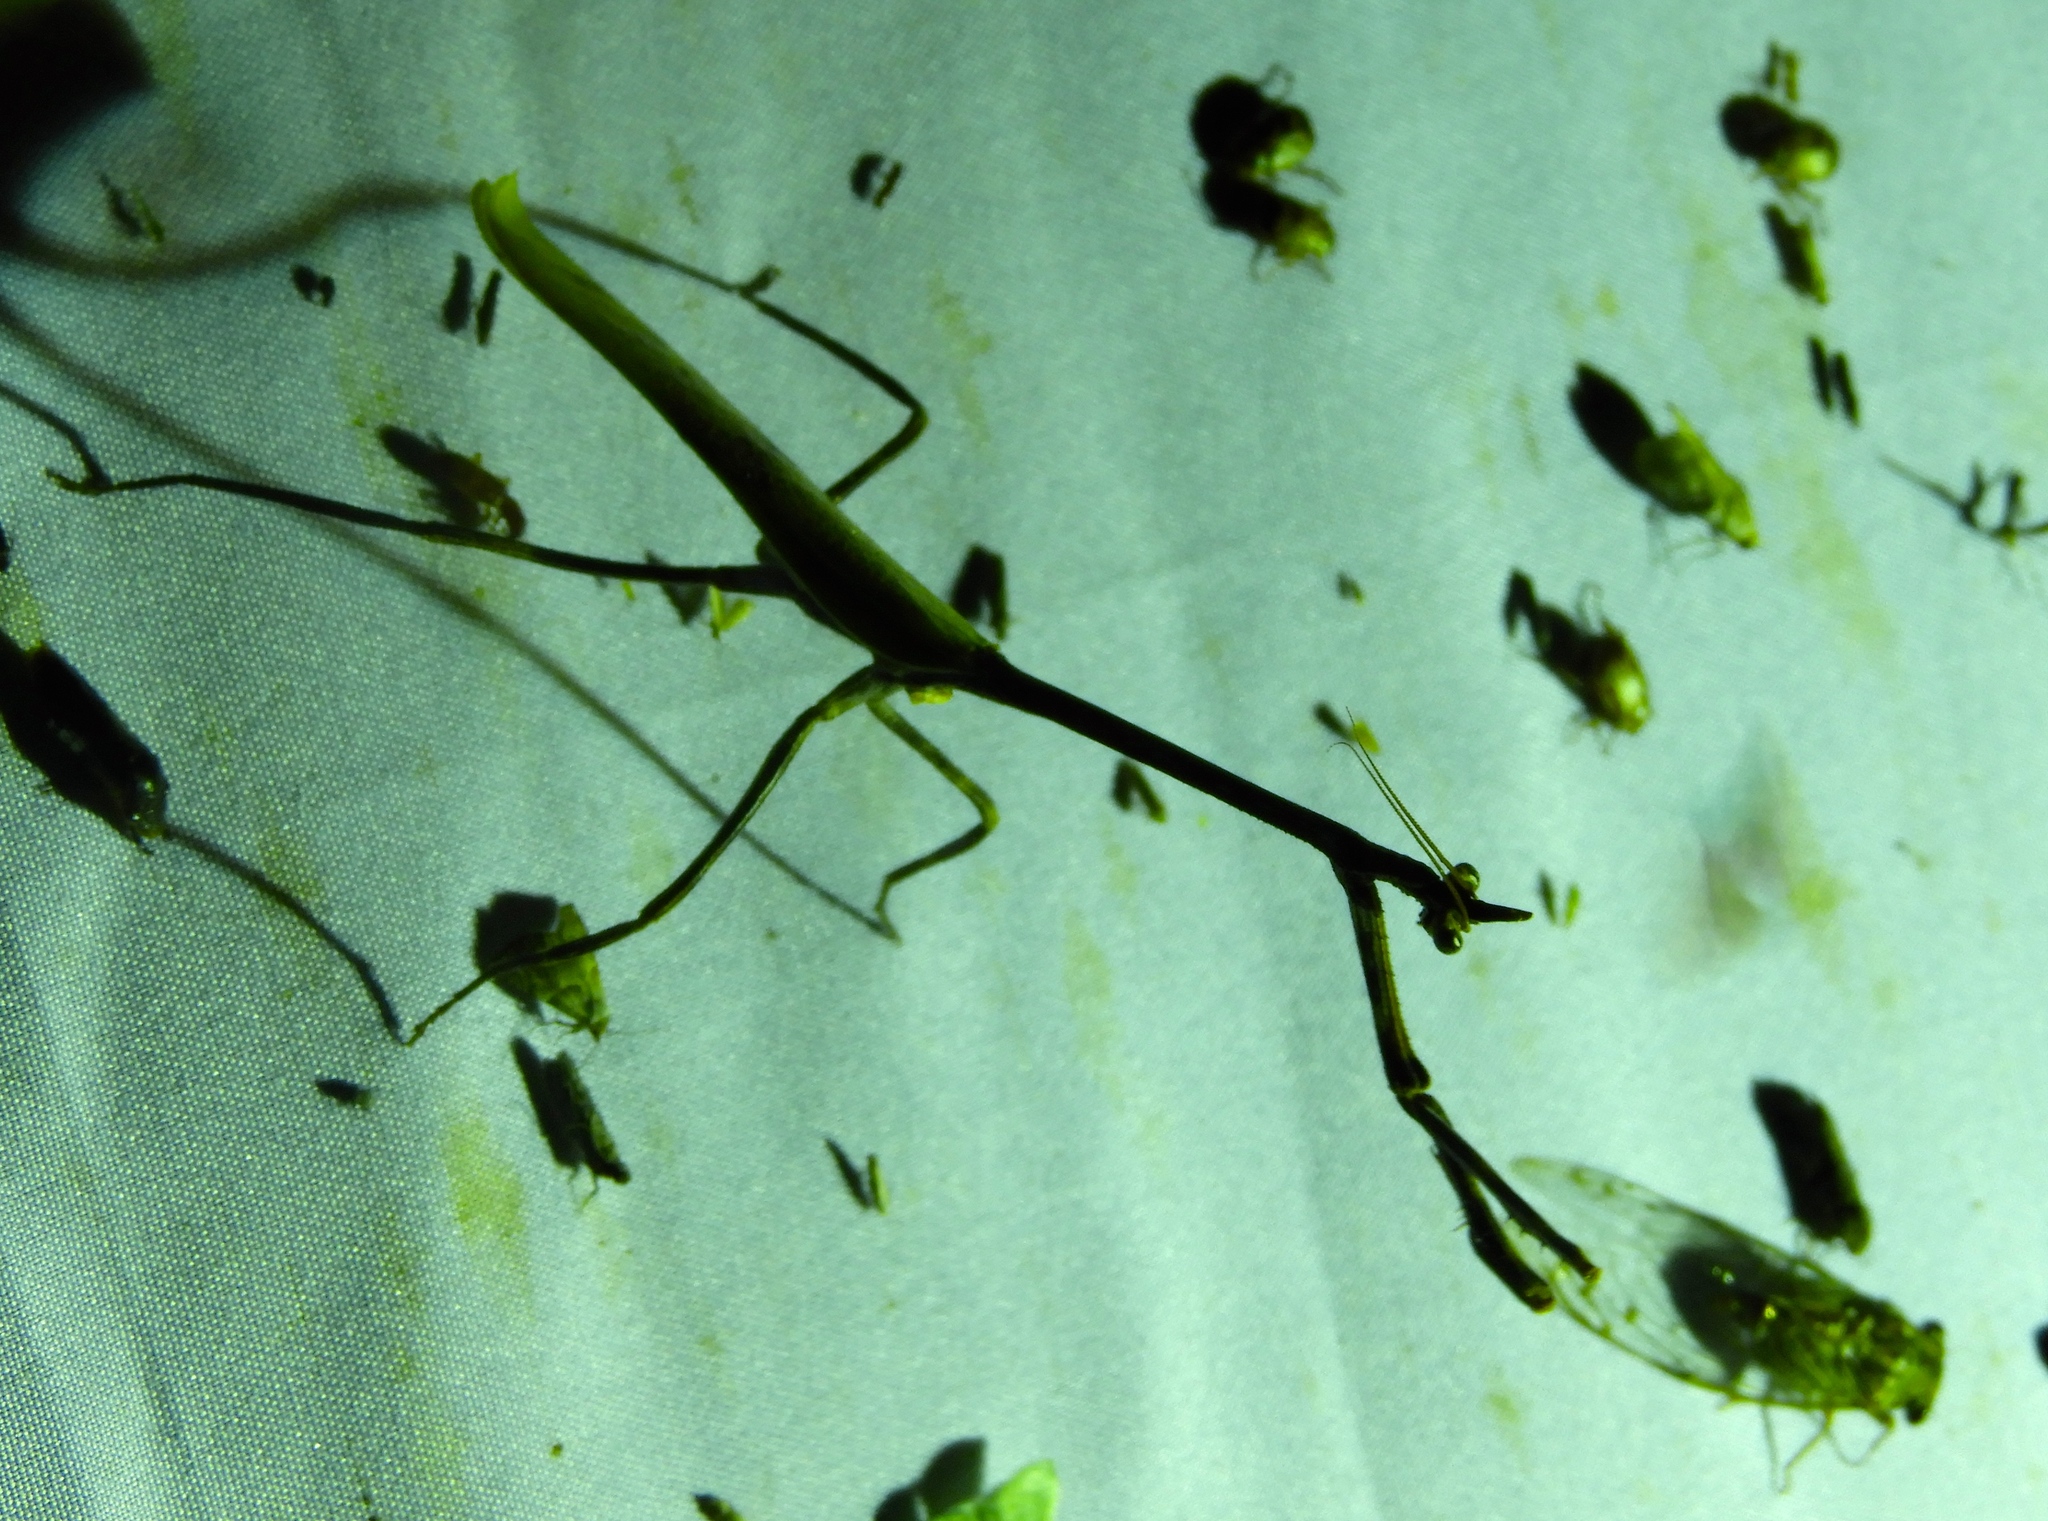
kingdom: Animalia
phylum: Arthropoda
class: Insecta
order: Mantodea
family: Mantidae
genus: Pseudovates
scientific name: Pseudovates
